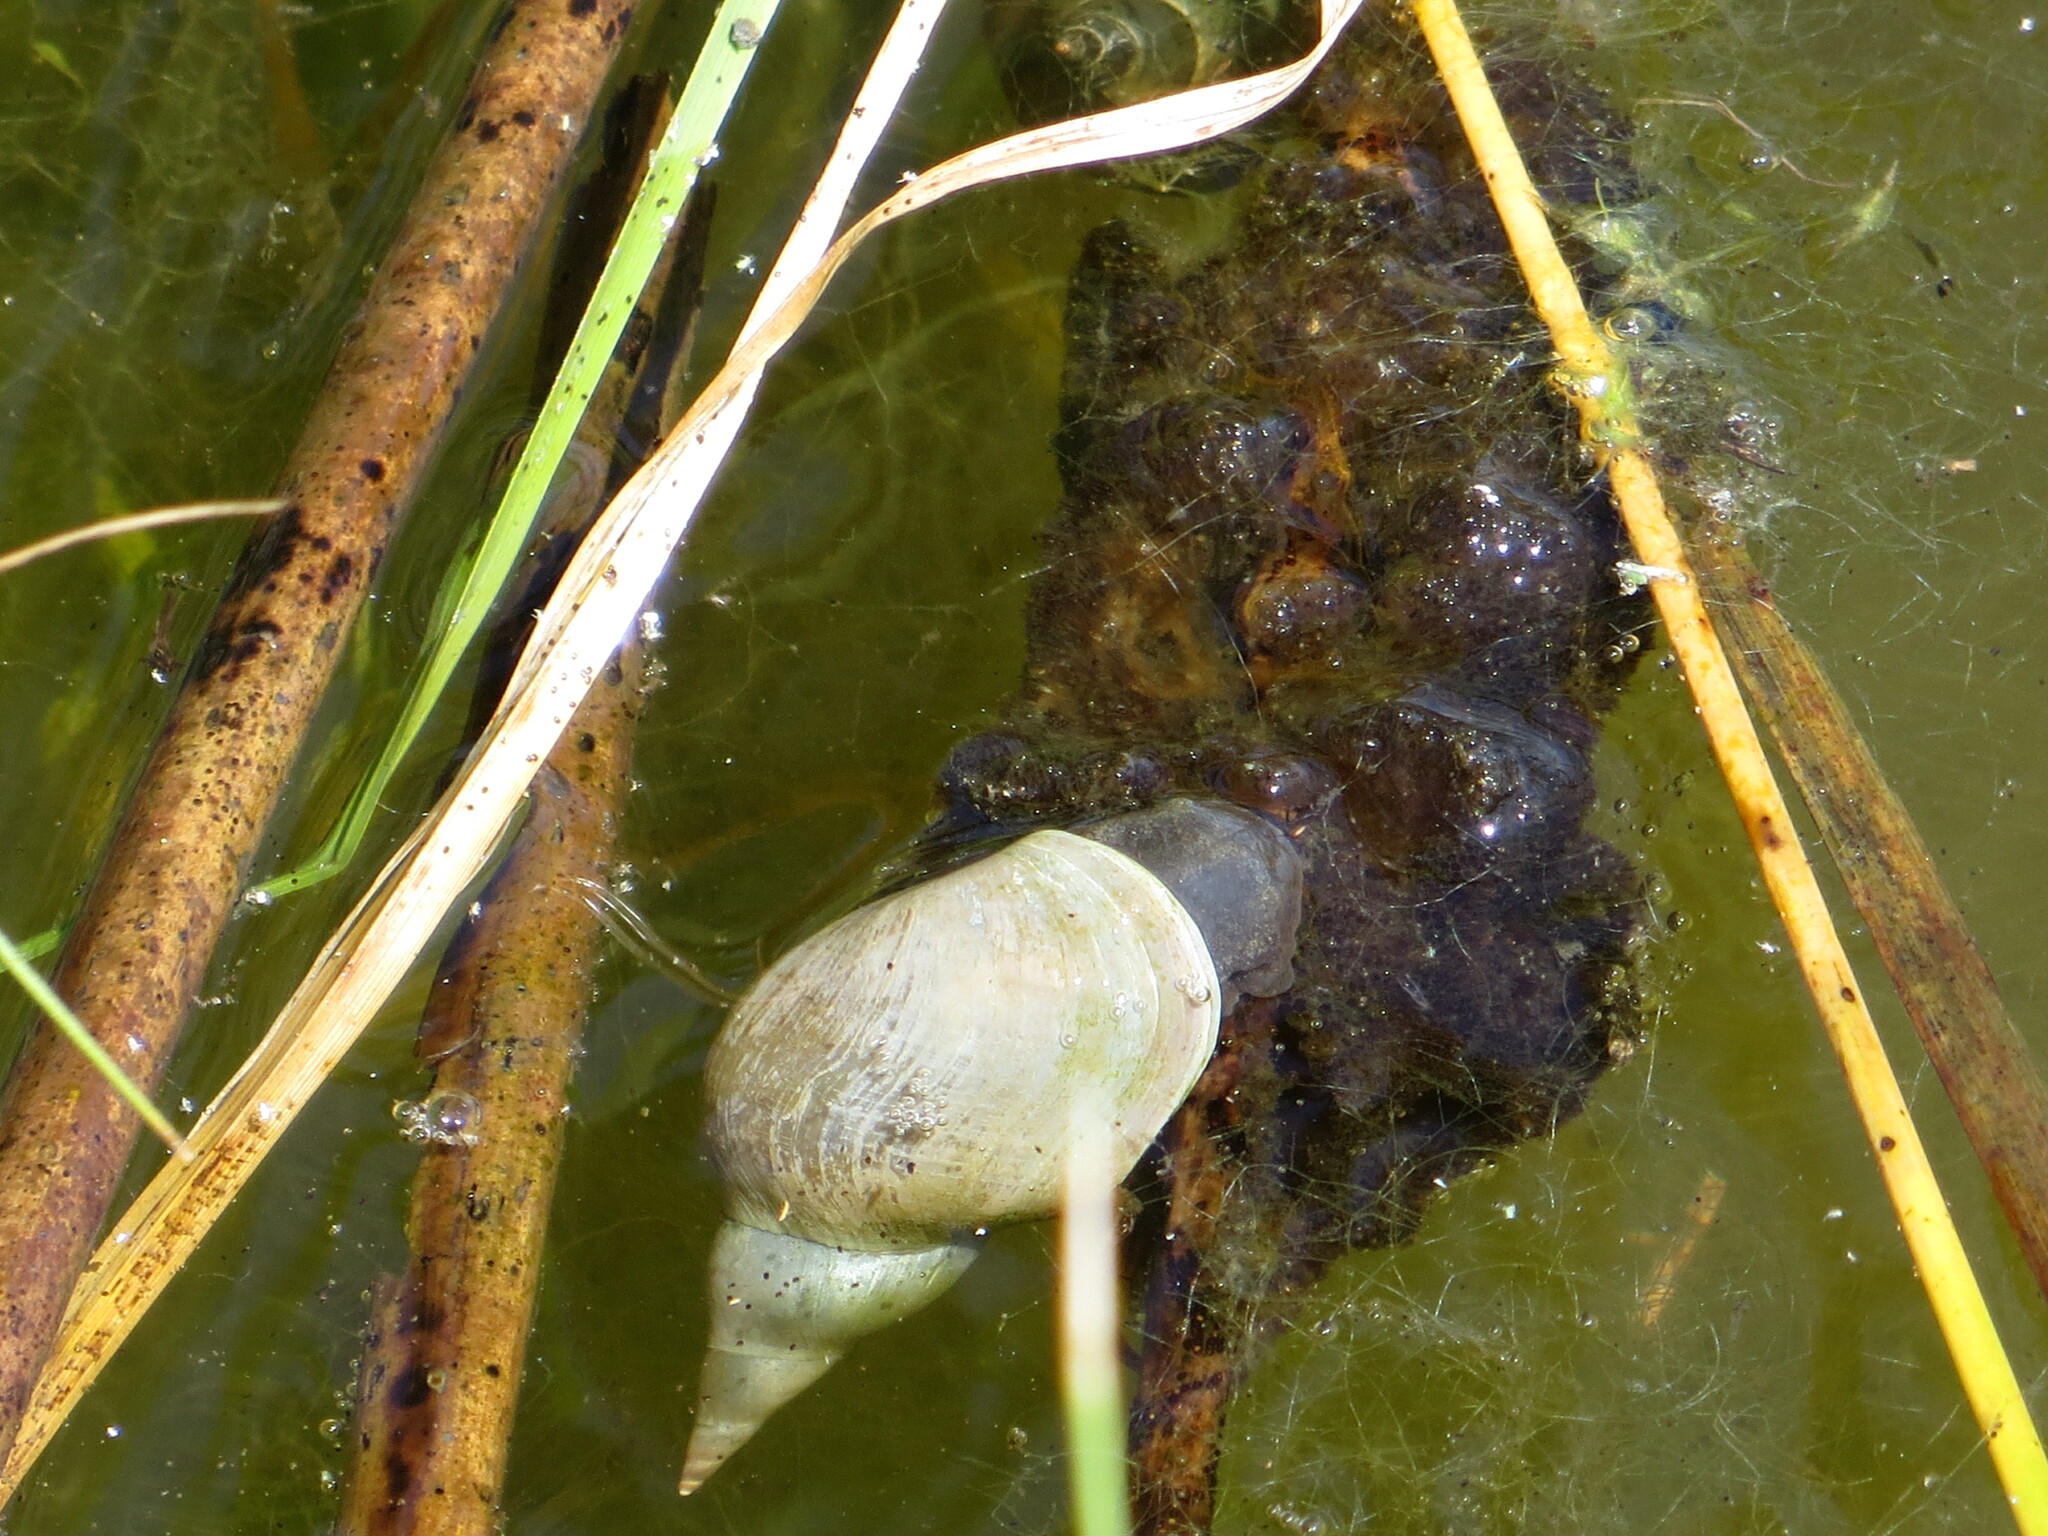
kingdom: Animalia
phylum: Mollusca
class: Gastropoda
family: Lymnaeidae
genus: Lymnaea
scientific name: Lymnaea stagnalis
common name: Great pond snail
